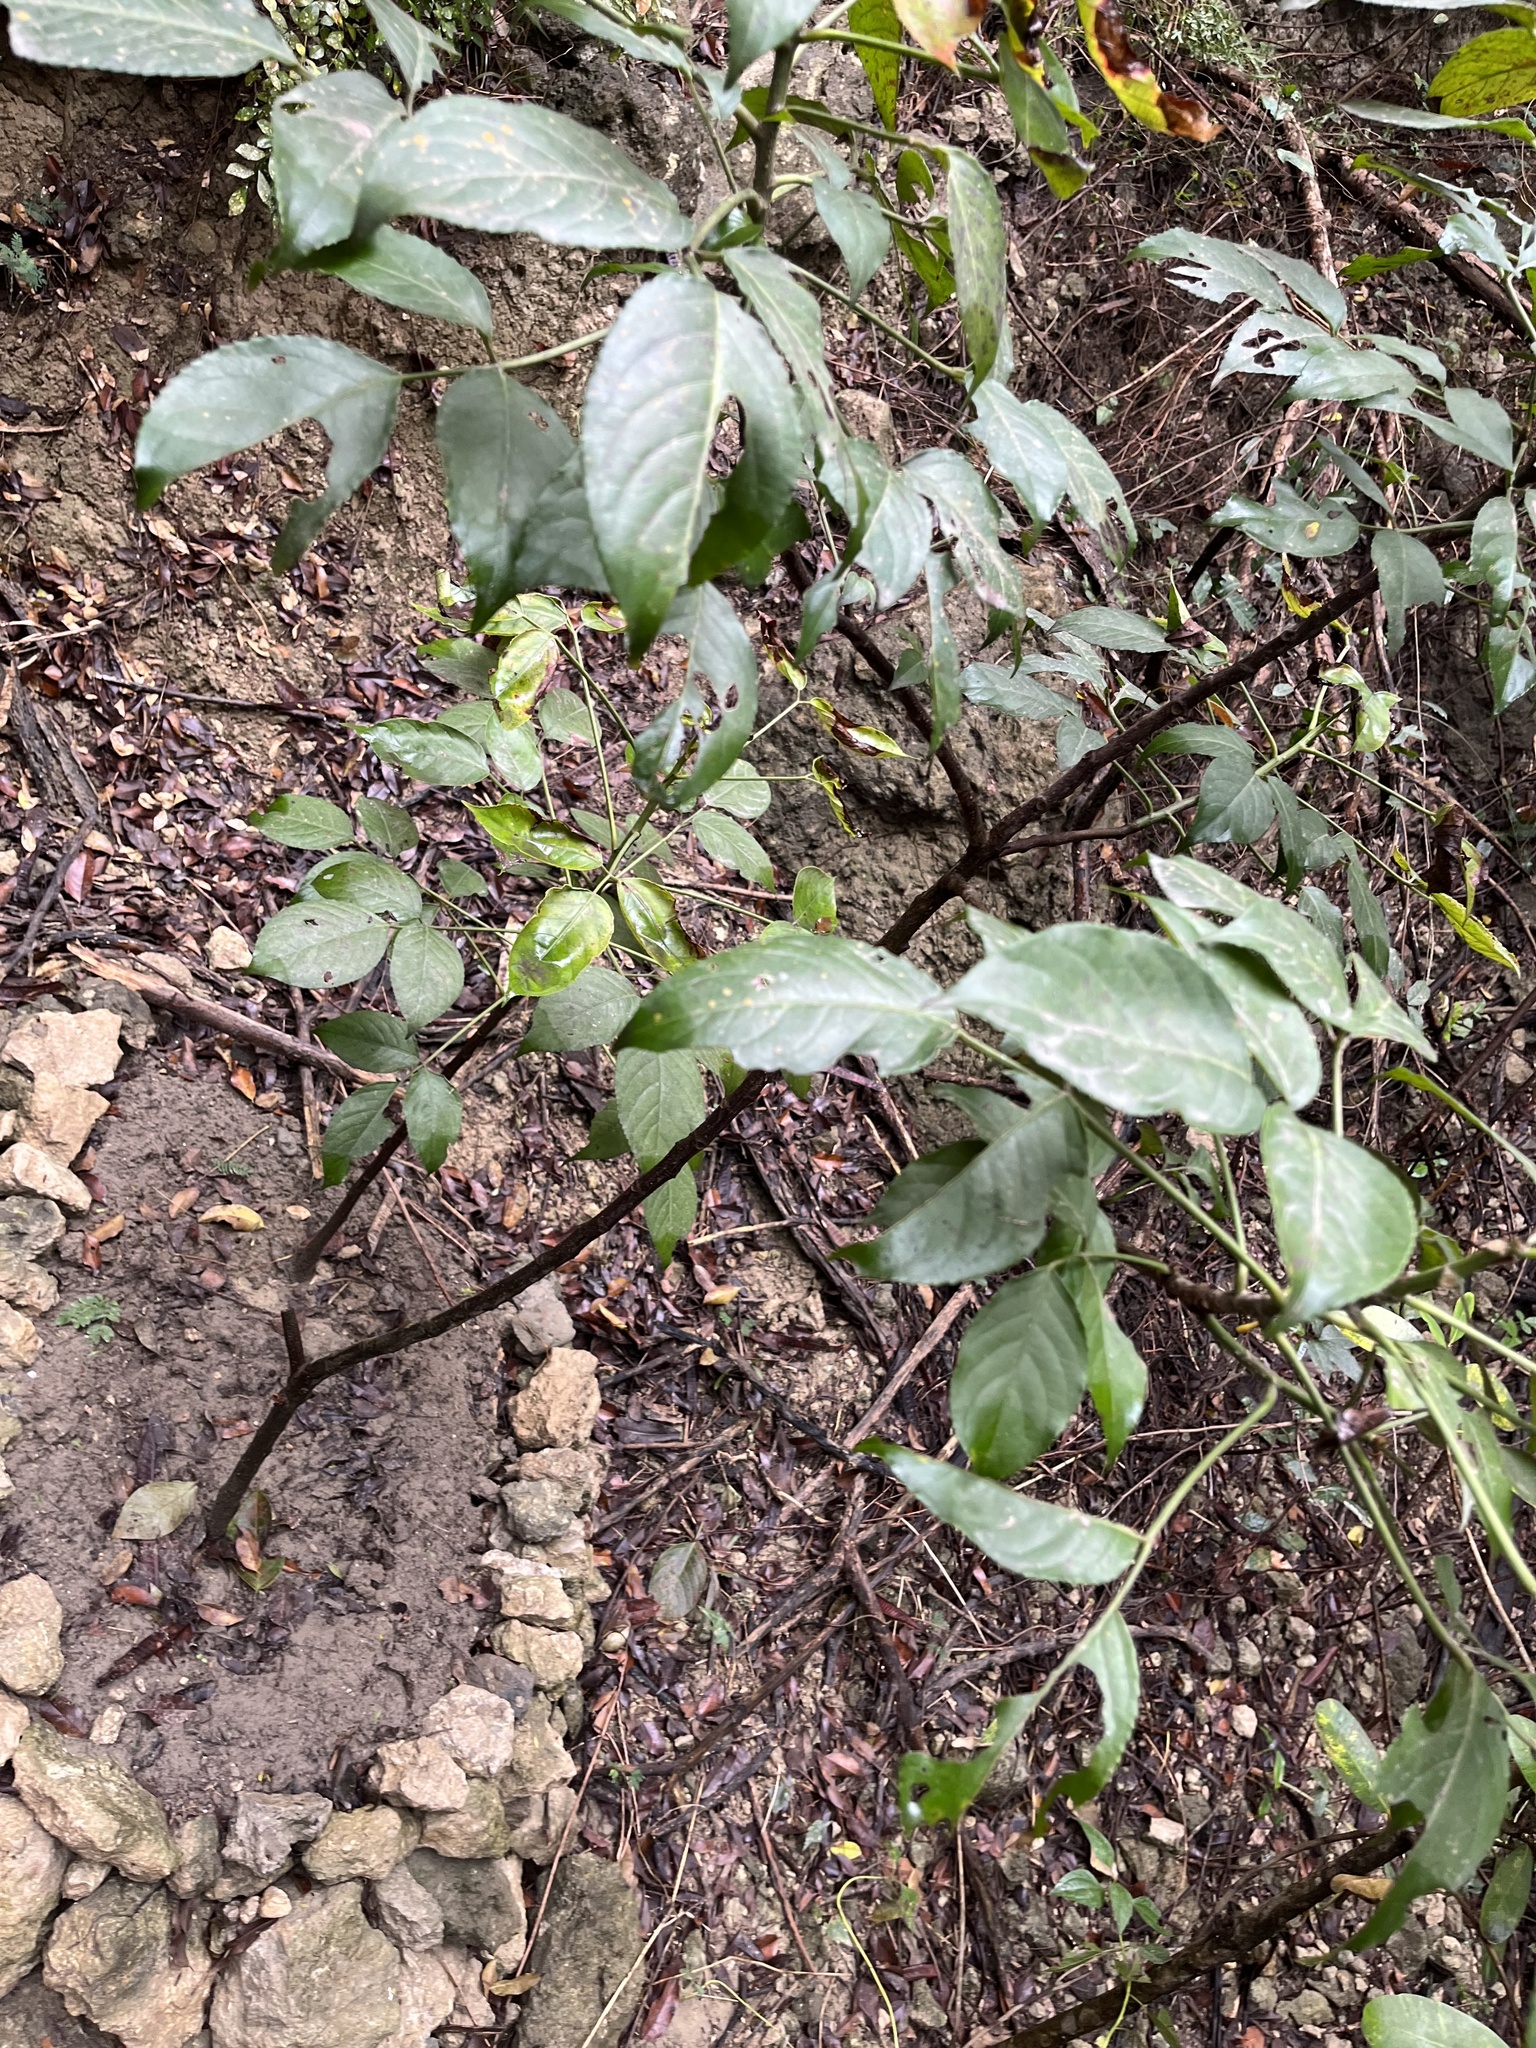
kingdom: Plantae
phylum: Tracheophyta
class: Magnoliopsida
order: Malpighiales
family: Phyllanthaceae
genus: Bischofia
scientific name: Bischofia javanica
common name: Javanese bishopwood
